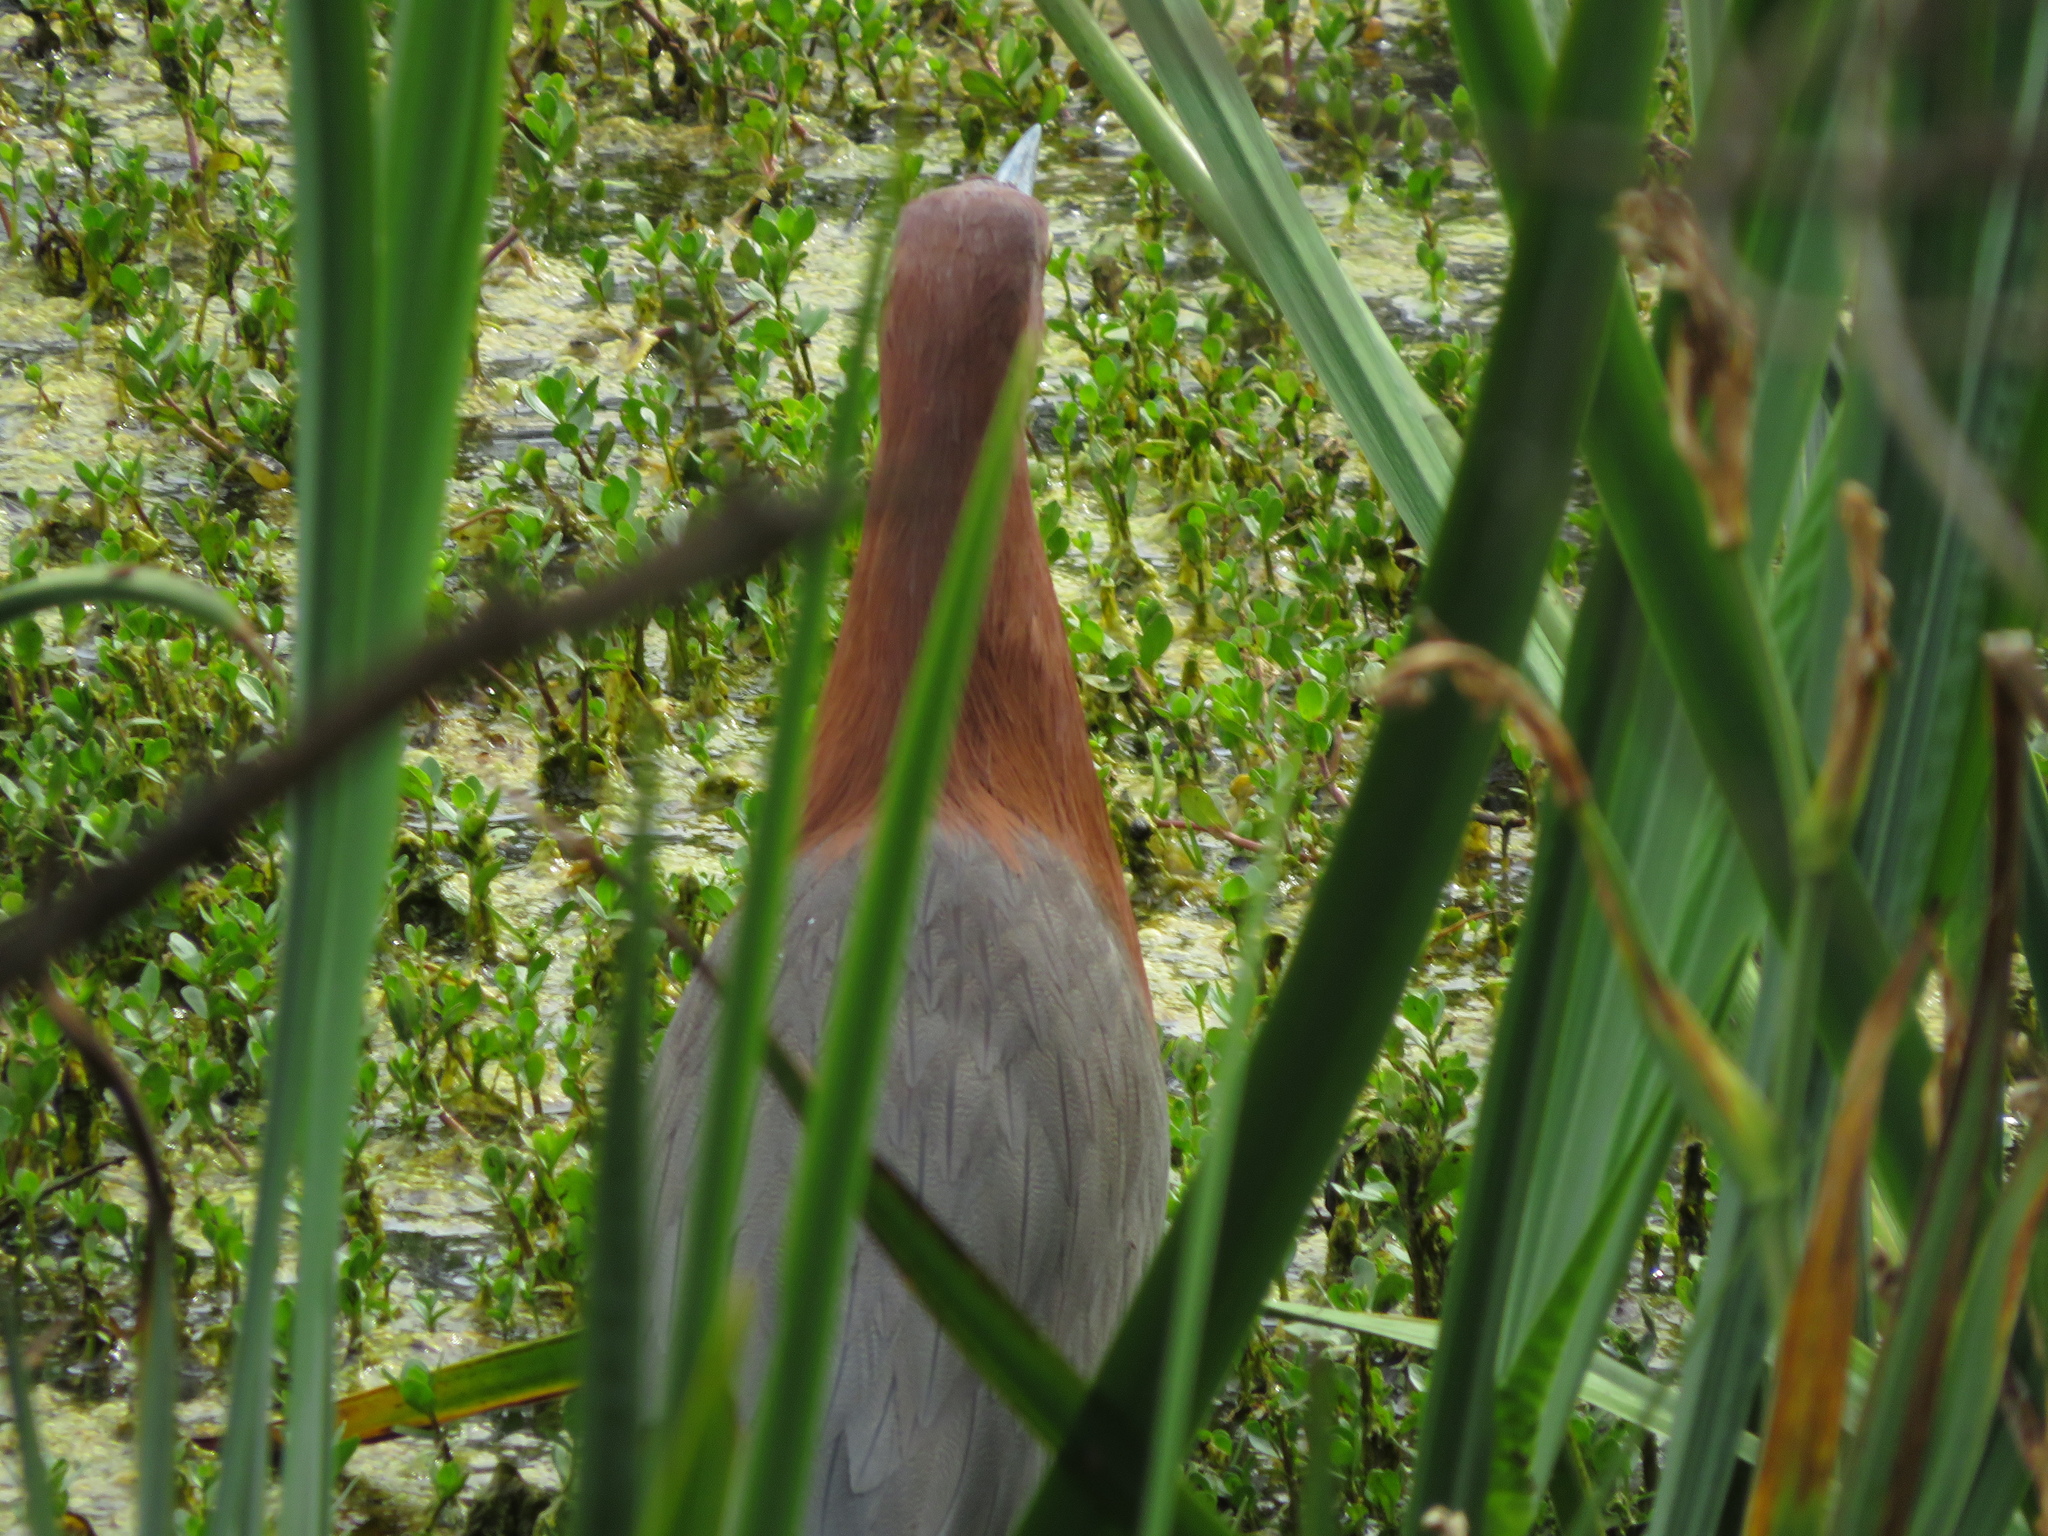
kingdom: Animalia
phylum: Chordata
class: Aves
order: Pelecaniformes
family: Ardeidae
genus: Tigrisoma
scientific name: Tigrisoma lineatum
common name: Rufescent tiger-heron
